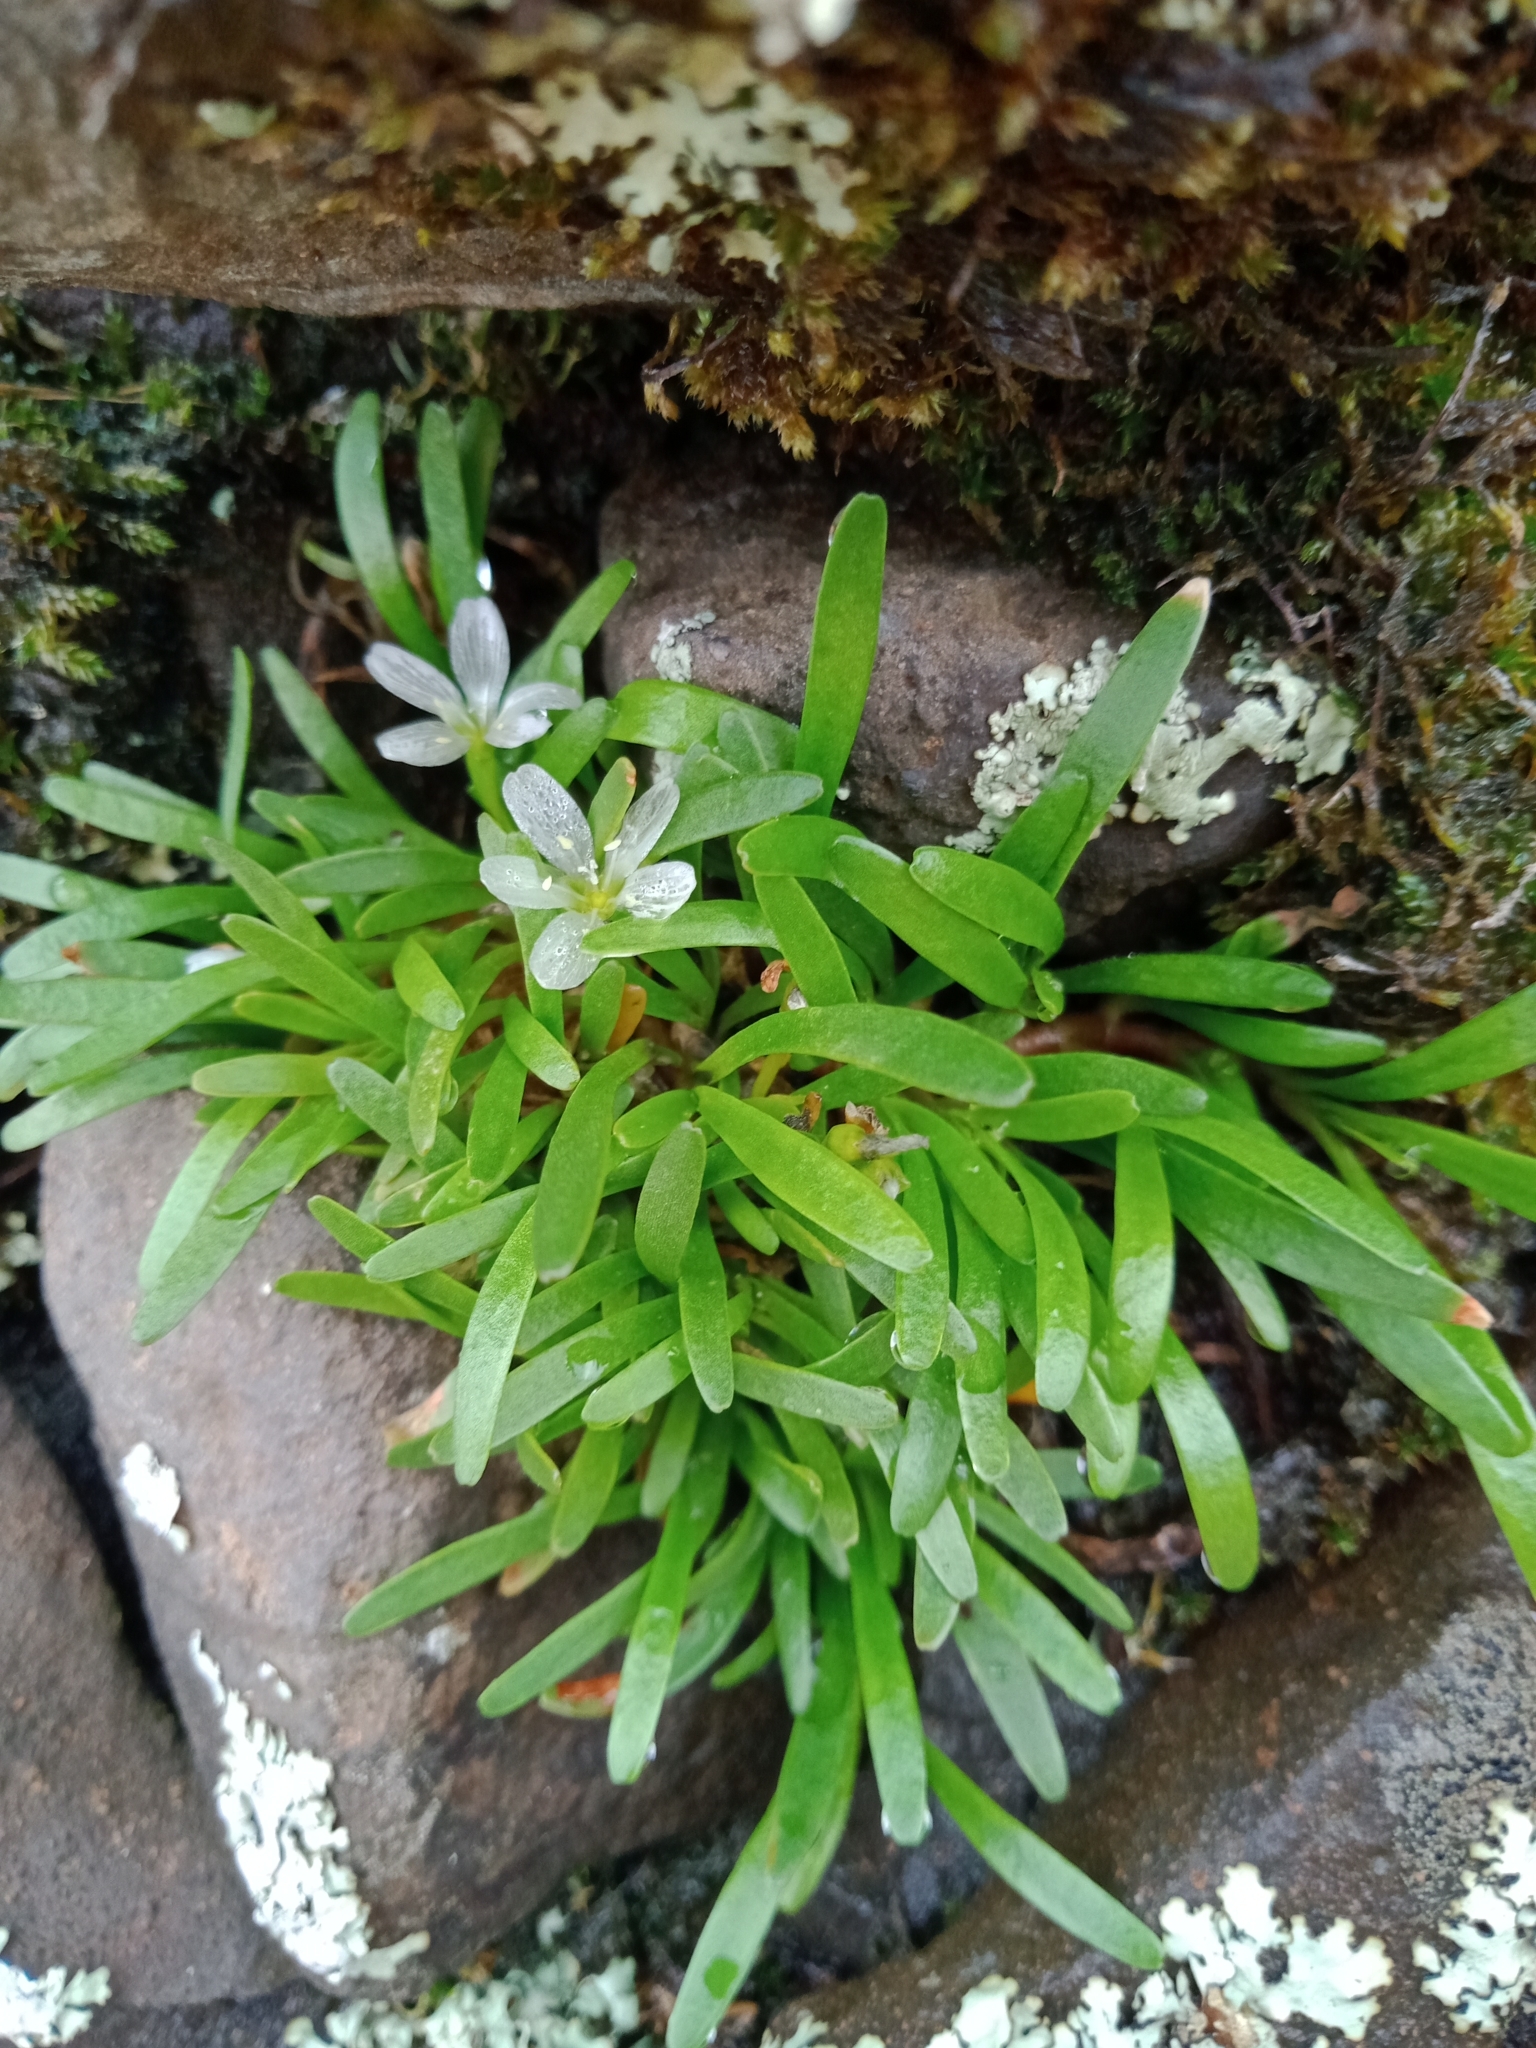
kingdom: Plantae
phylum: Tracheophyta
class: Magnoliopsida
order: Caryophyllales
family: Montiaceae
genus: Montia
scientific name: Montia australasica
